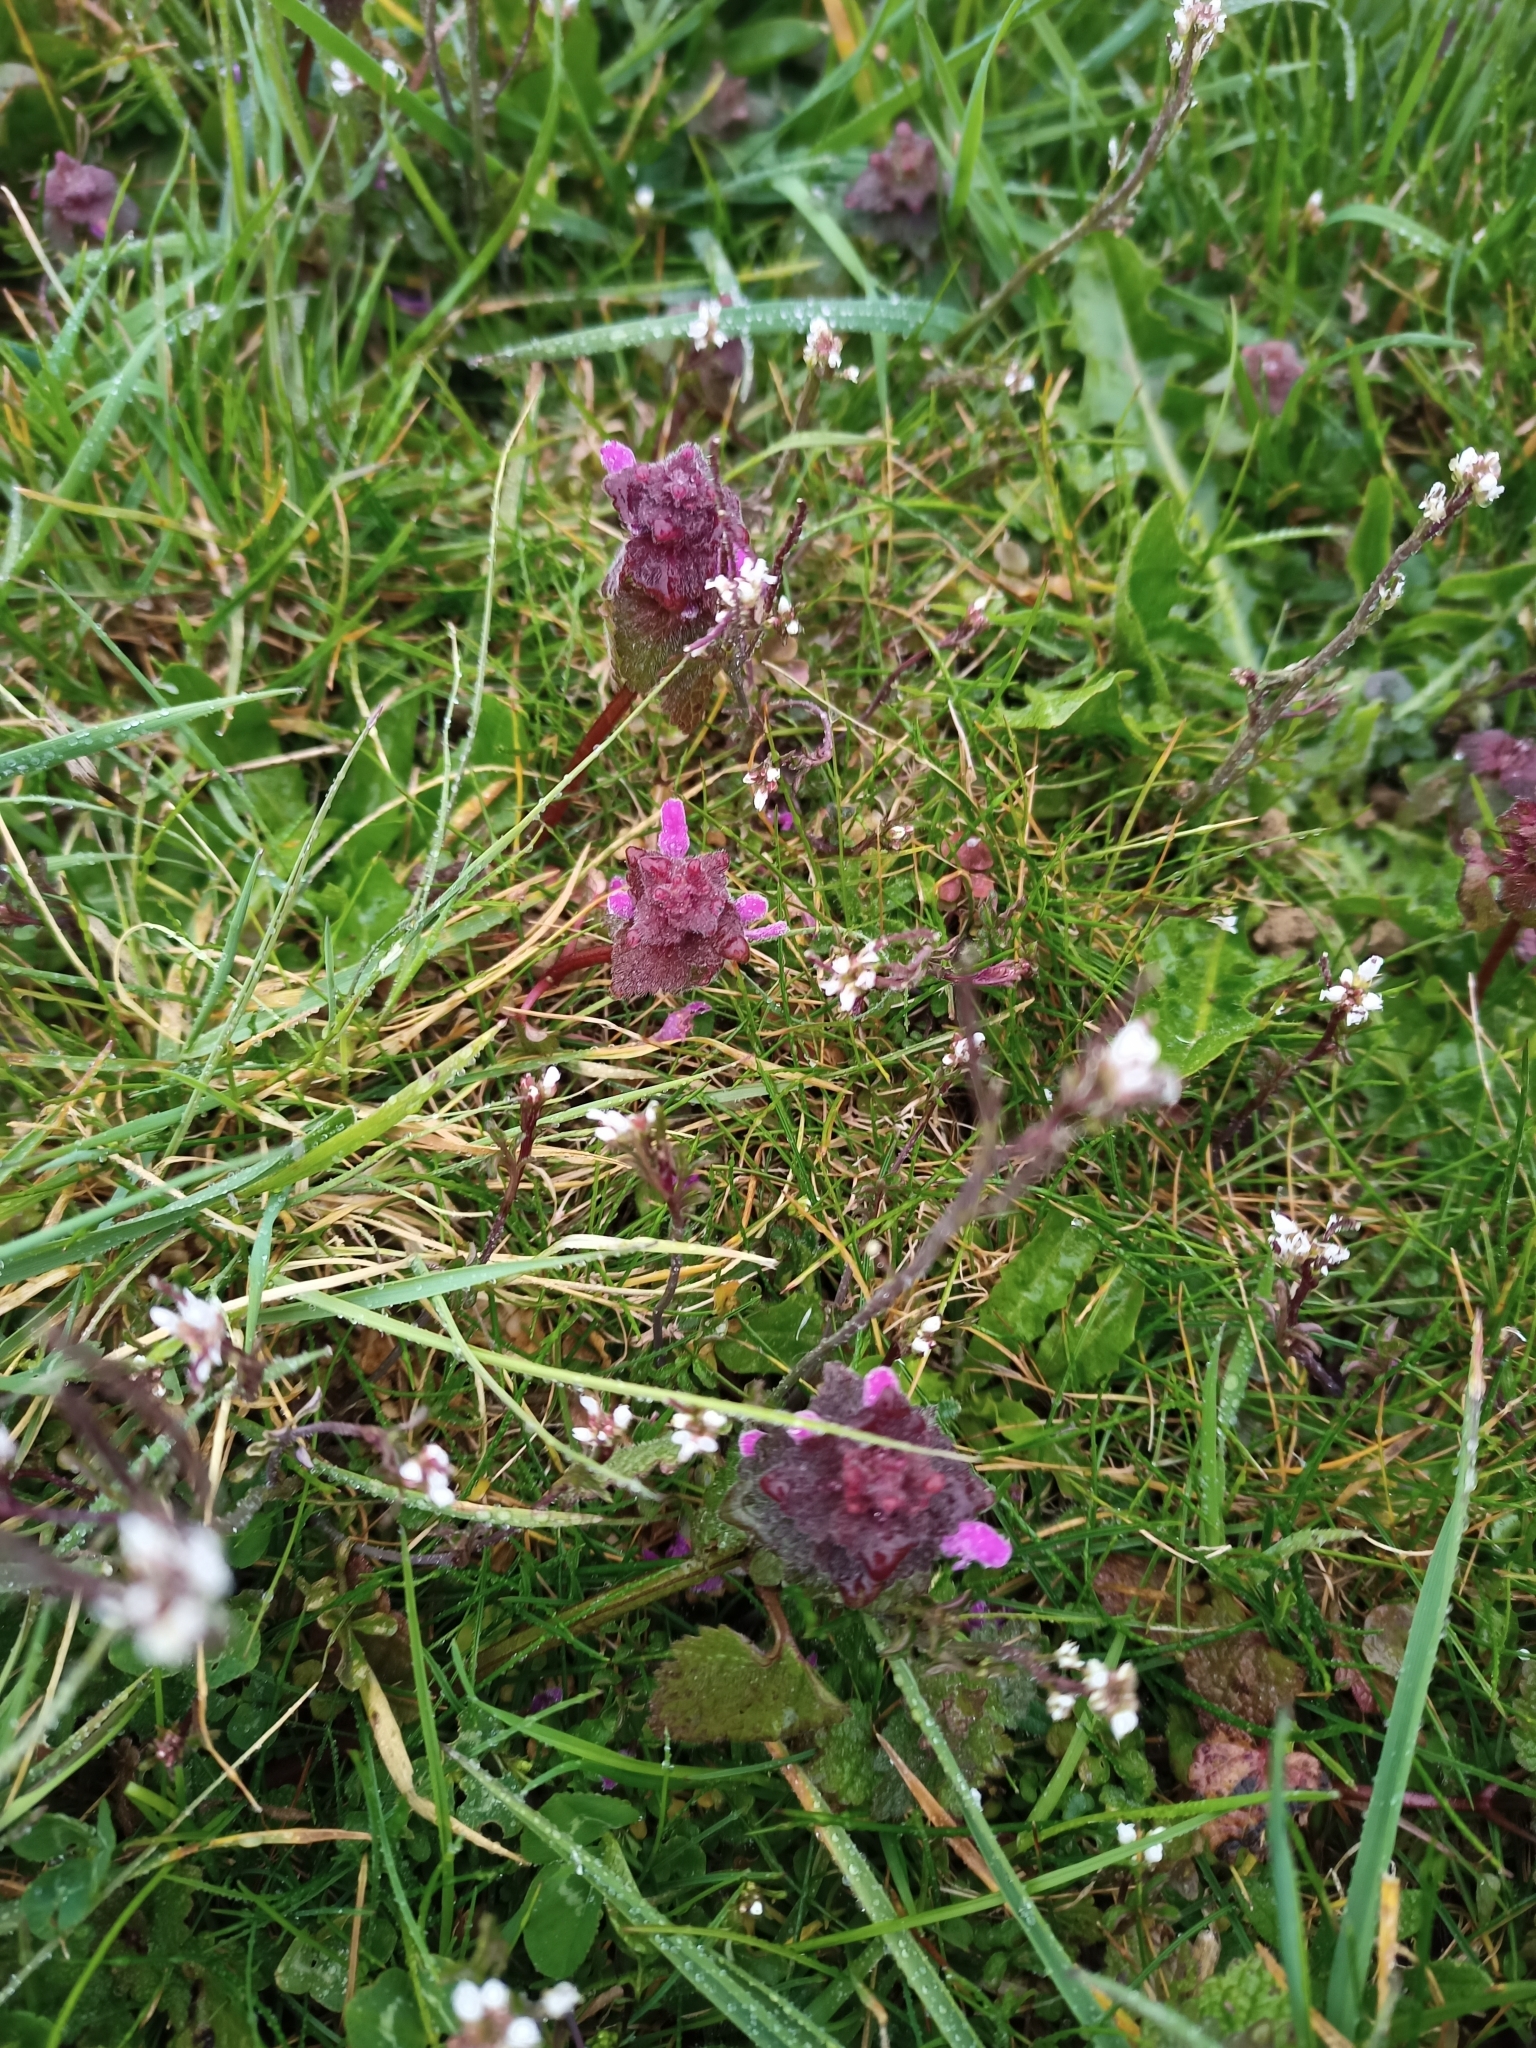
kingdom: Plantae
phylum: Tracheophyta
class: Magnoliopsida
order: Lamiales
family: Lamiaceae
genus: Lamium
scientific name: Lamium purpureum
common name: Red dead-nettle
